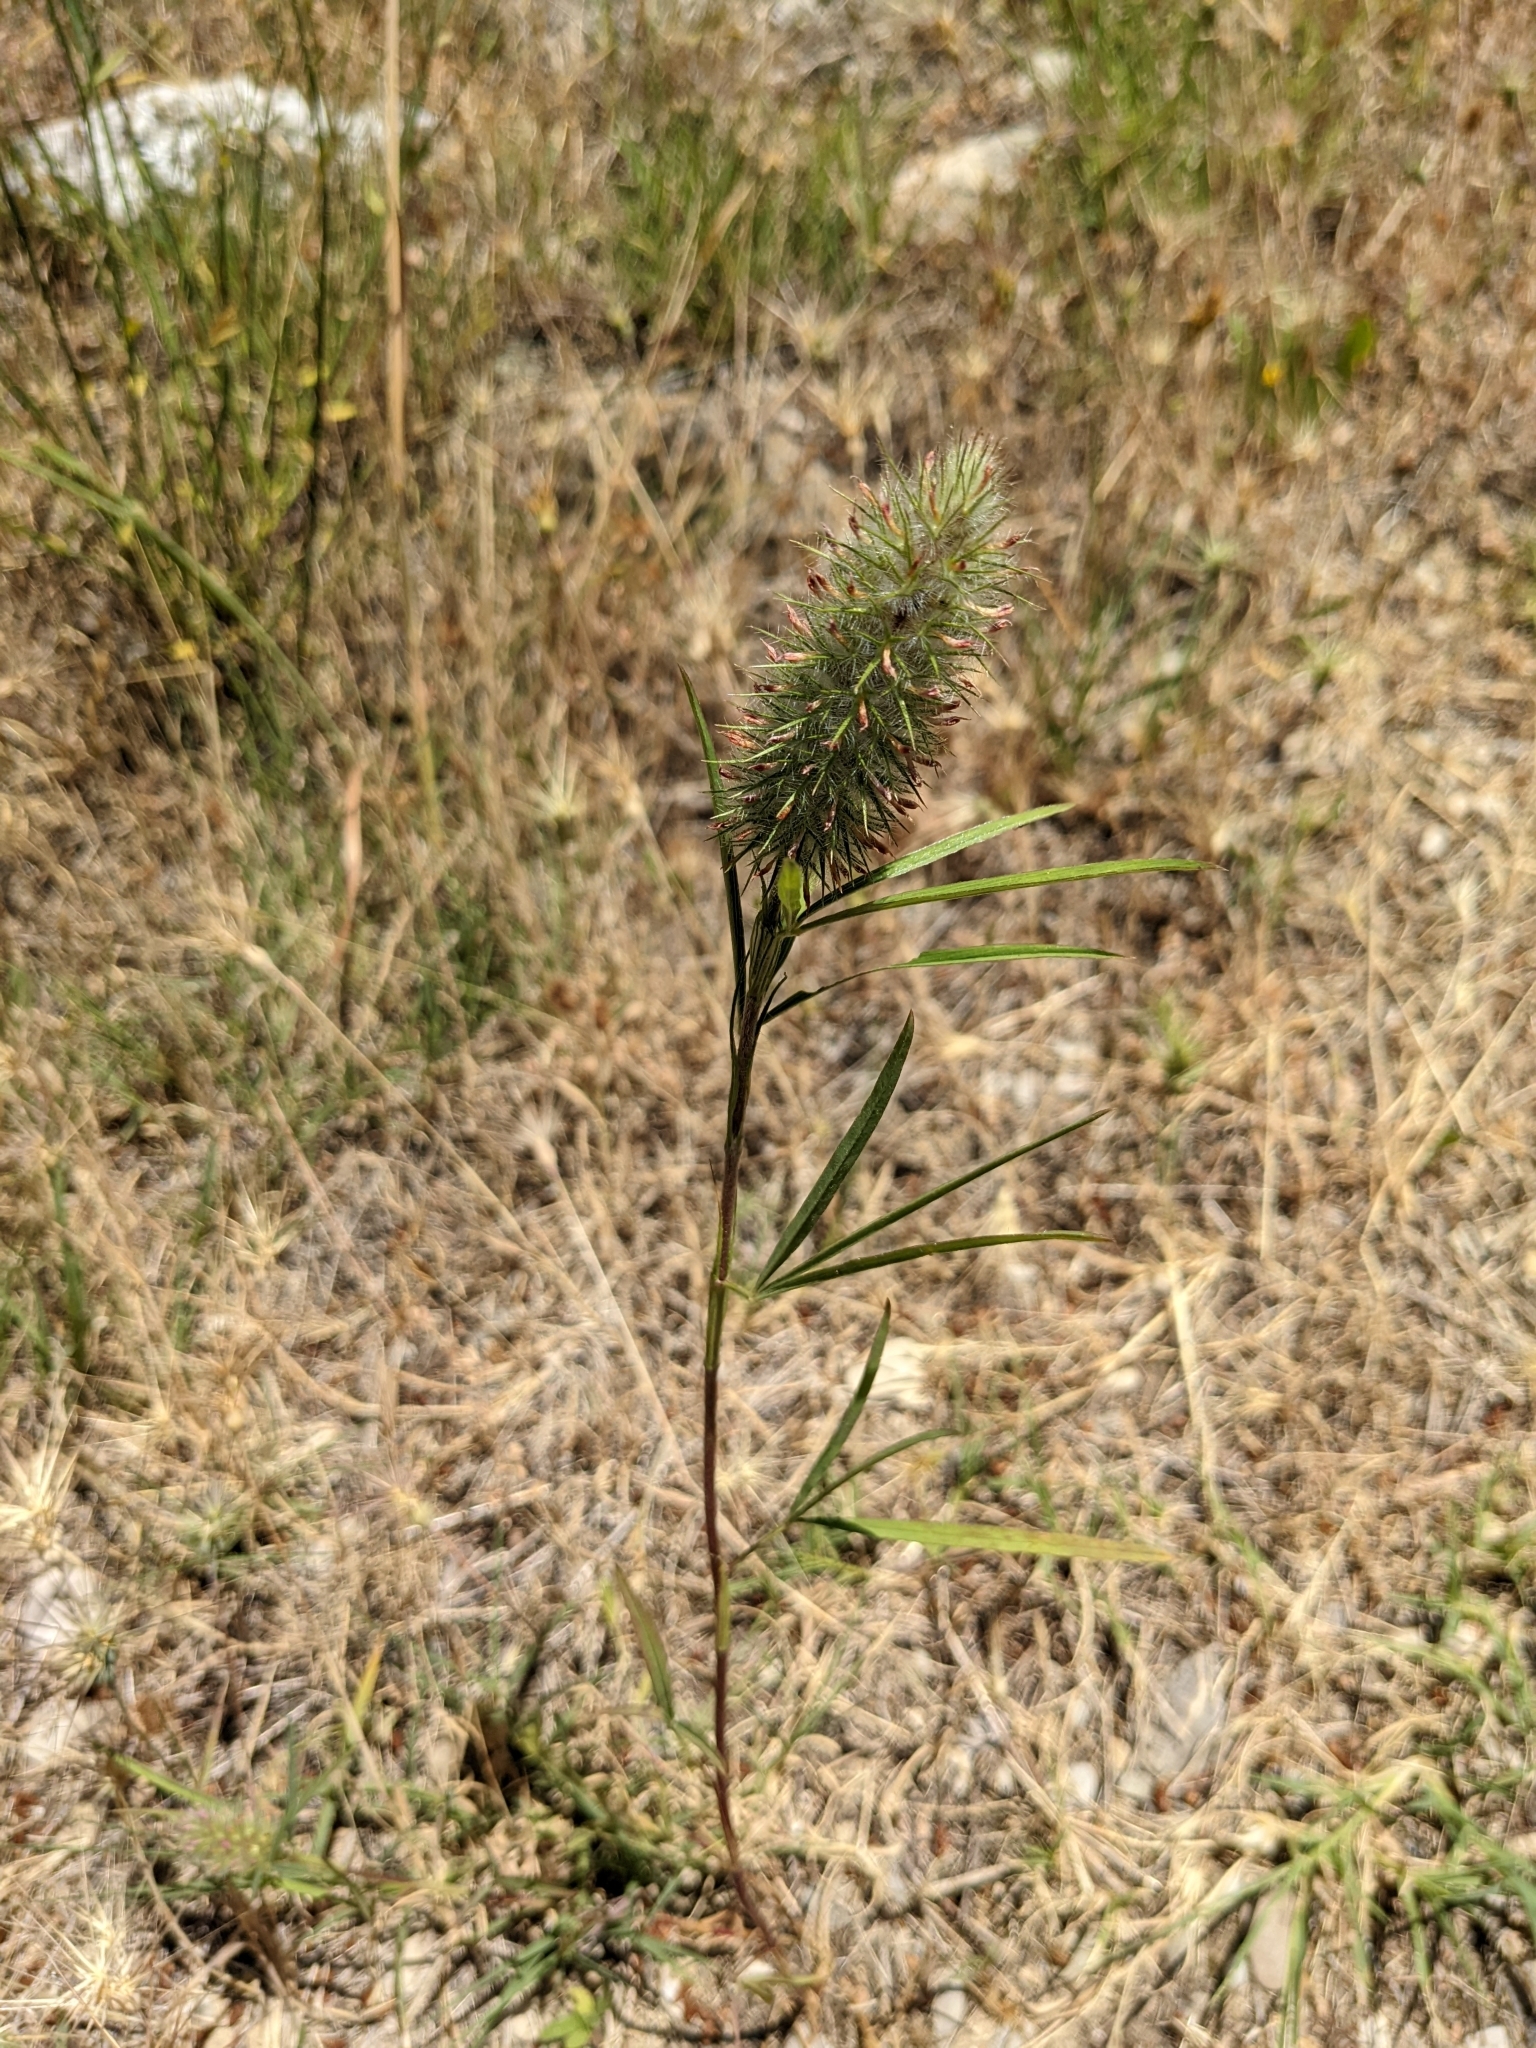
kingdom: Plantae
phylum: Tracheophyta
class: Magnoliopsida
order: Fabales
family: Fabaceae
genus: Trifolium
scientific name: Trifolium angustifolium
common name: Narrow clover
